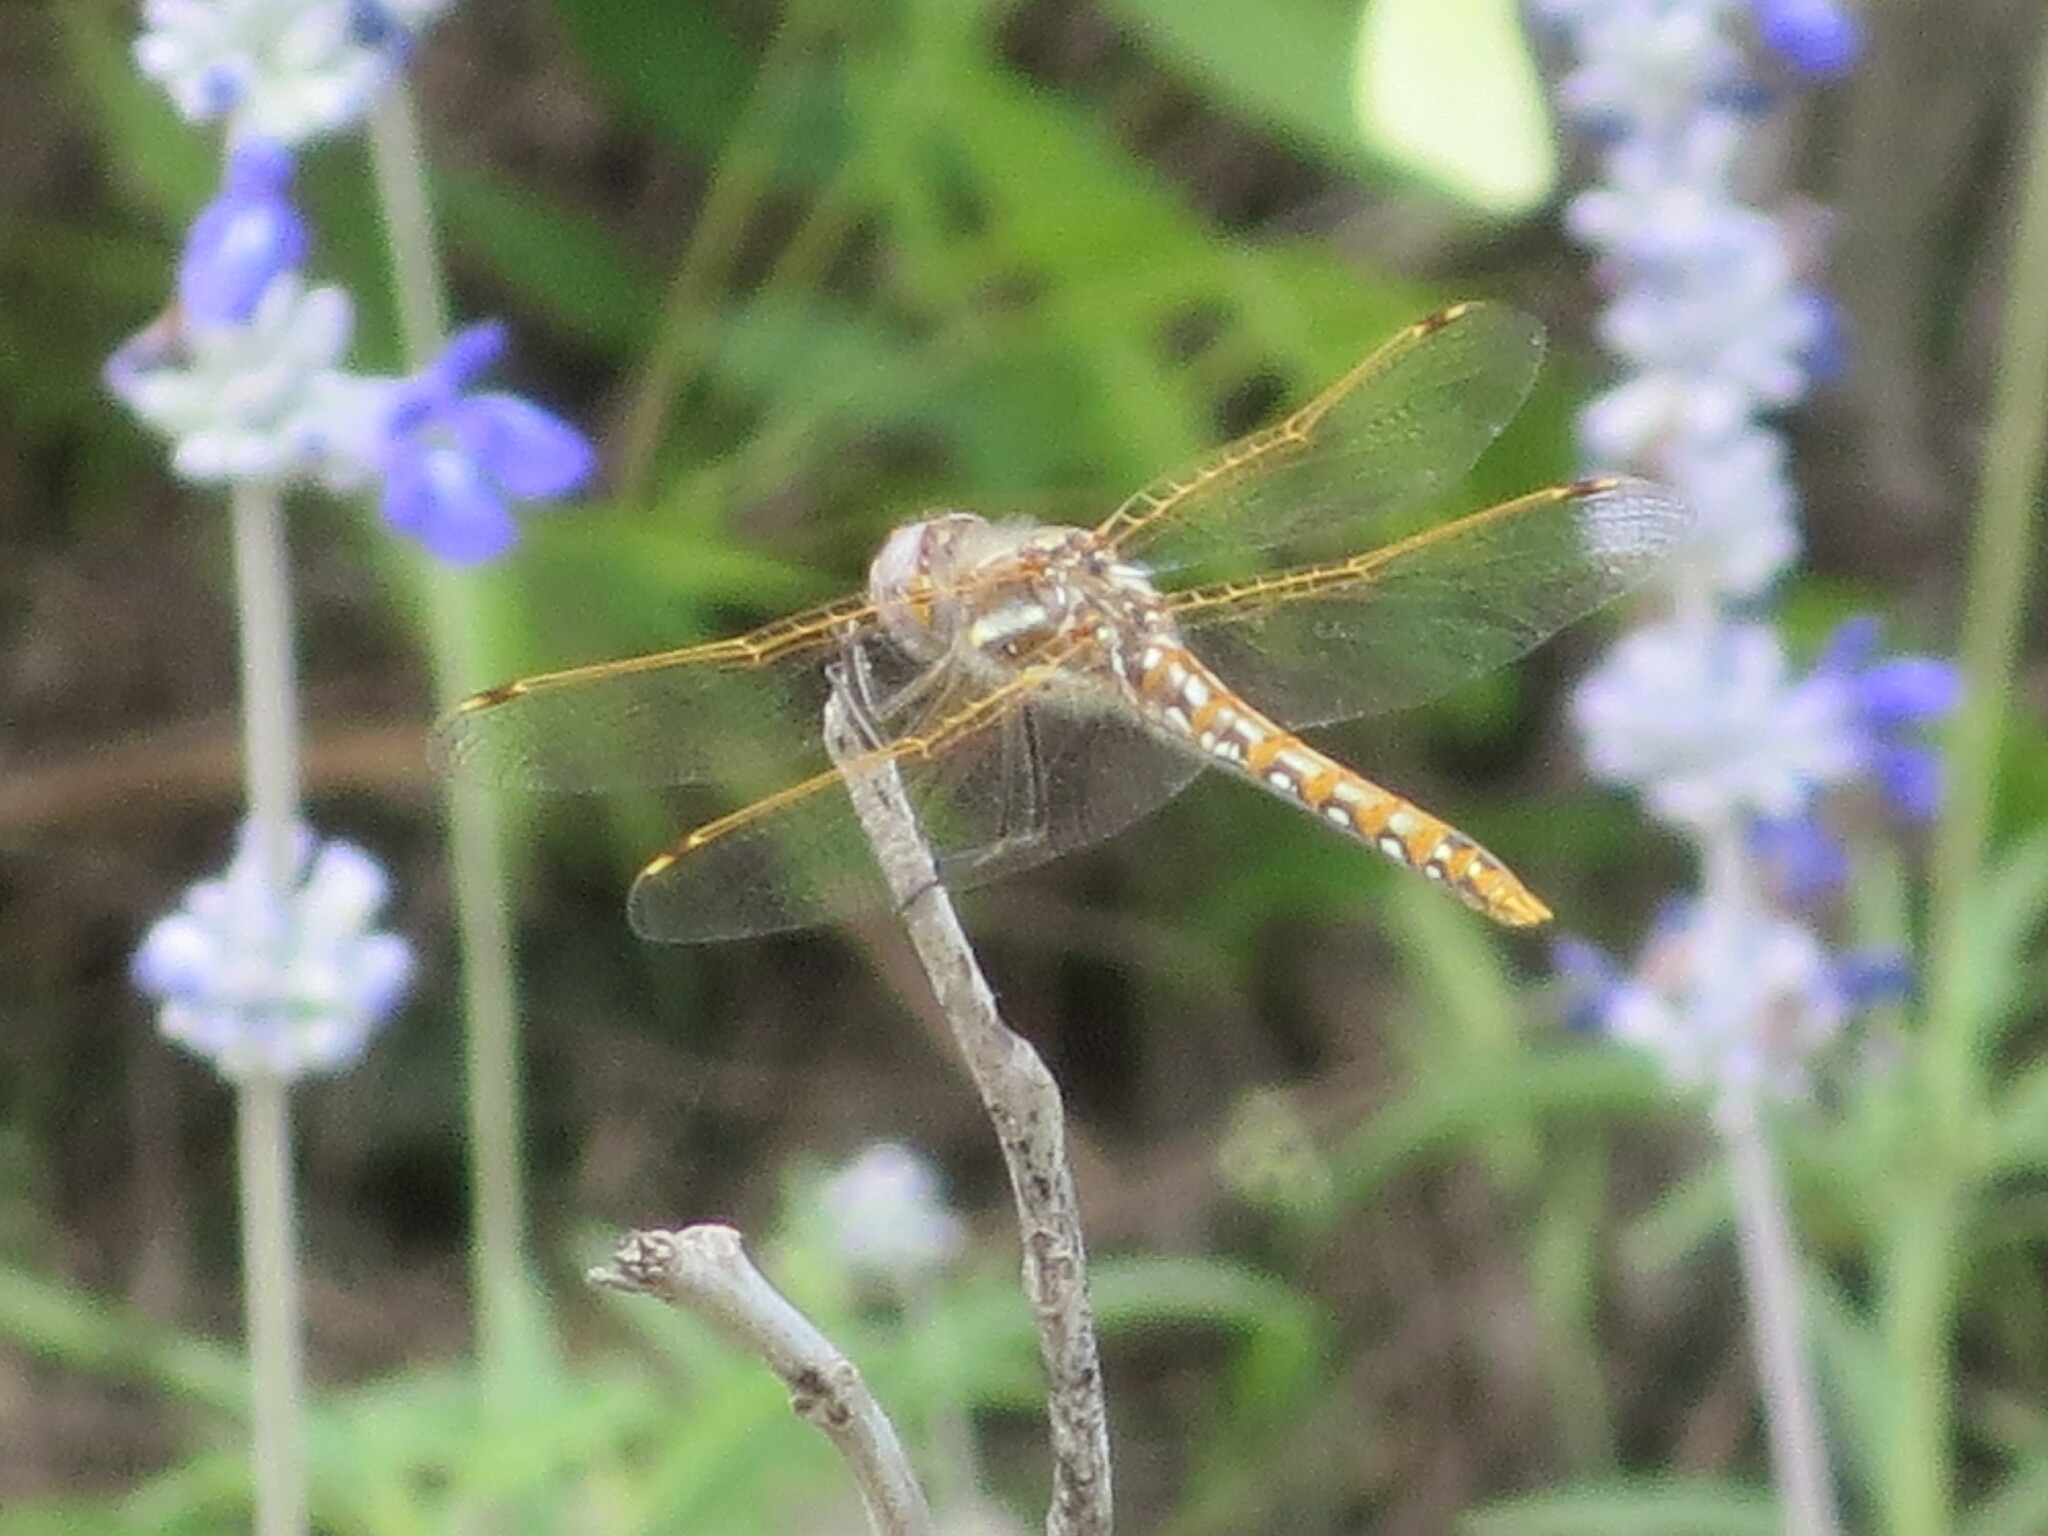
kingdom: Animalia
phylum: Arthropoda
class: Insecta
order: Odonata
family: Libellulidae
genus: Sympetrum
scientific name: Sympetrum corruptum
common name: Variegated meadowhawk
